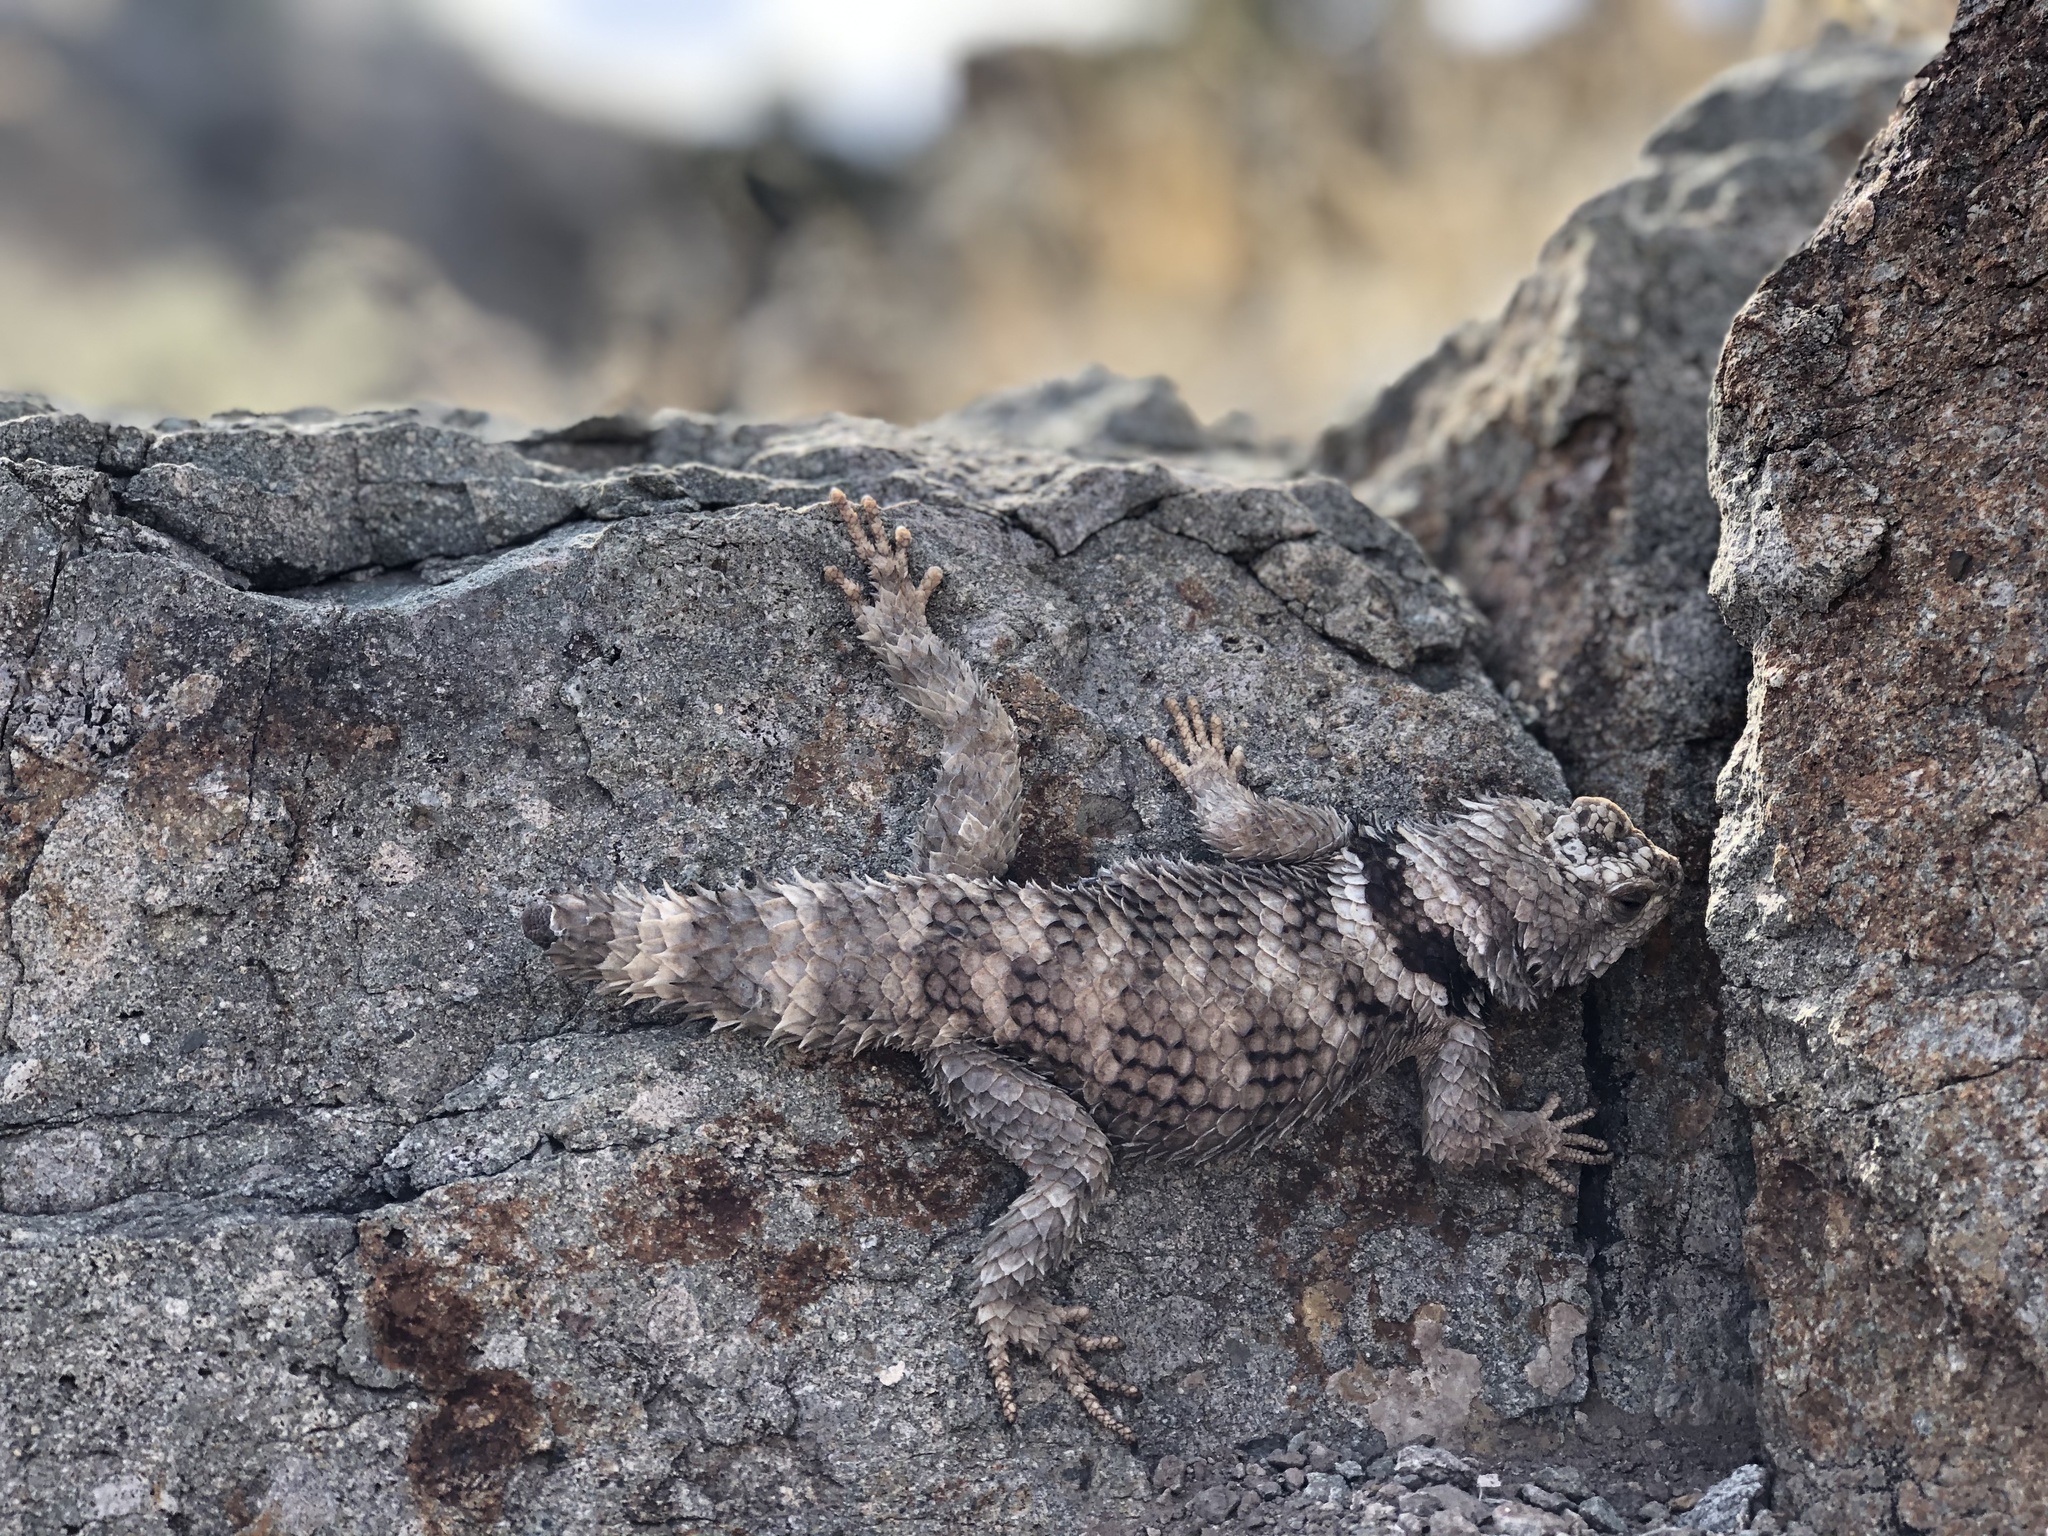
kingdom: Animalia
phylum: Chordata
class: Squamata
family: Phrynosomatidae
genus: Sceloporus
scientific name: Sceloporus poinsettii
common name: Crevice spiny lizard
